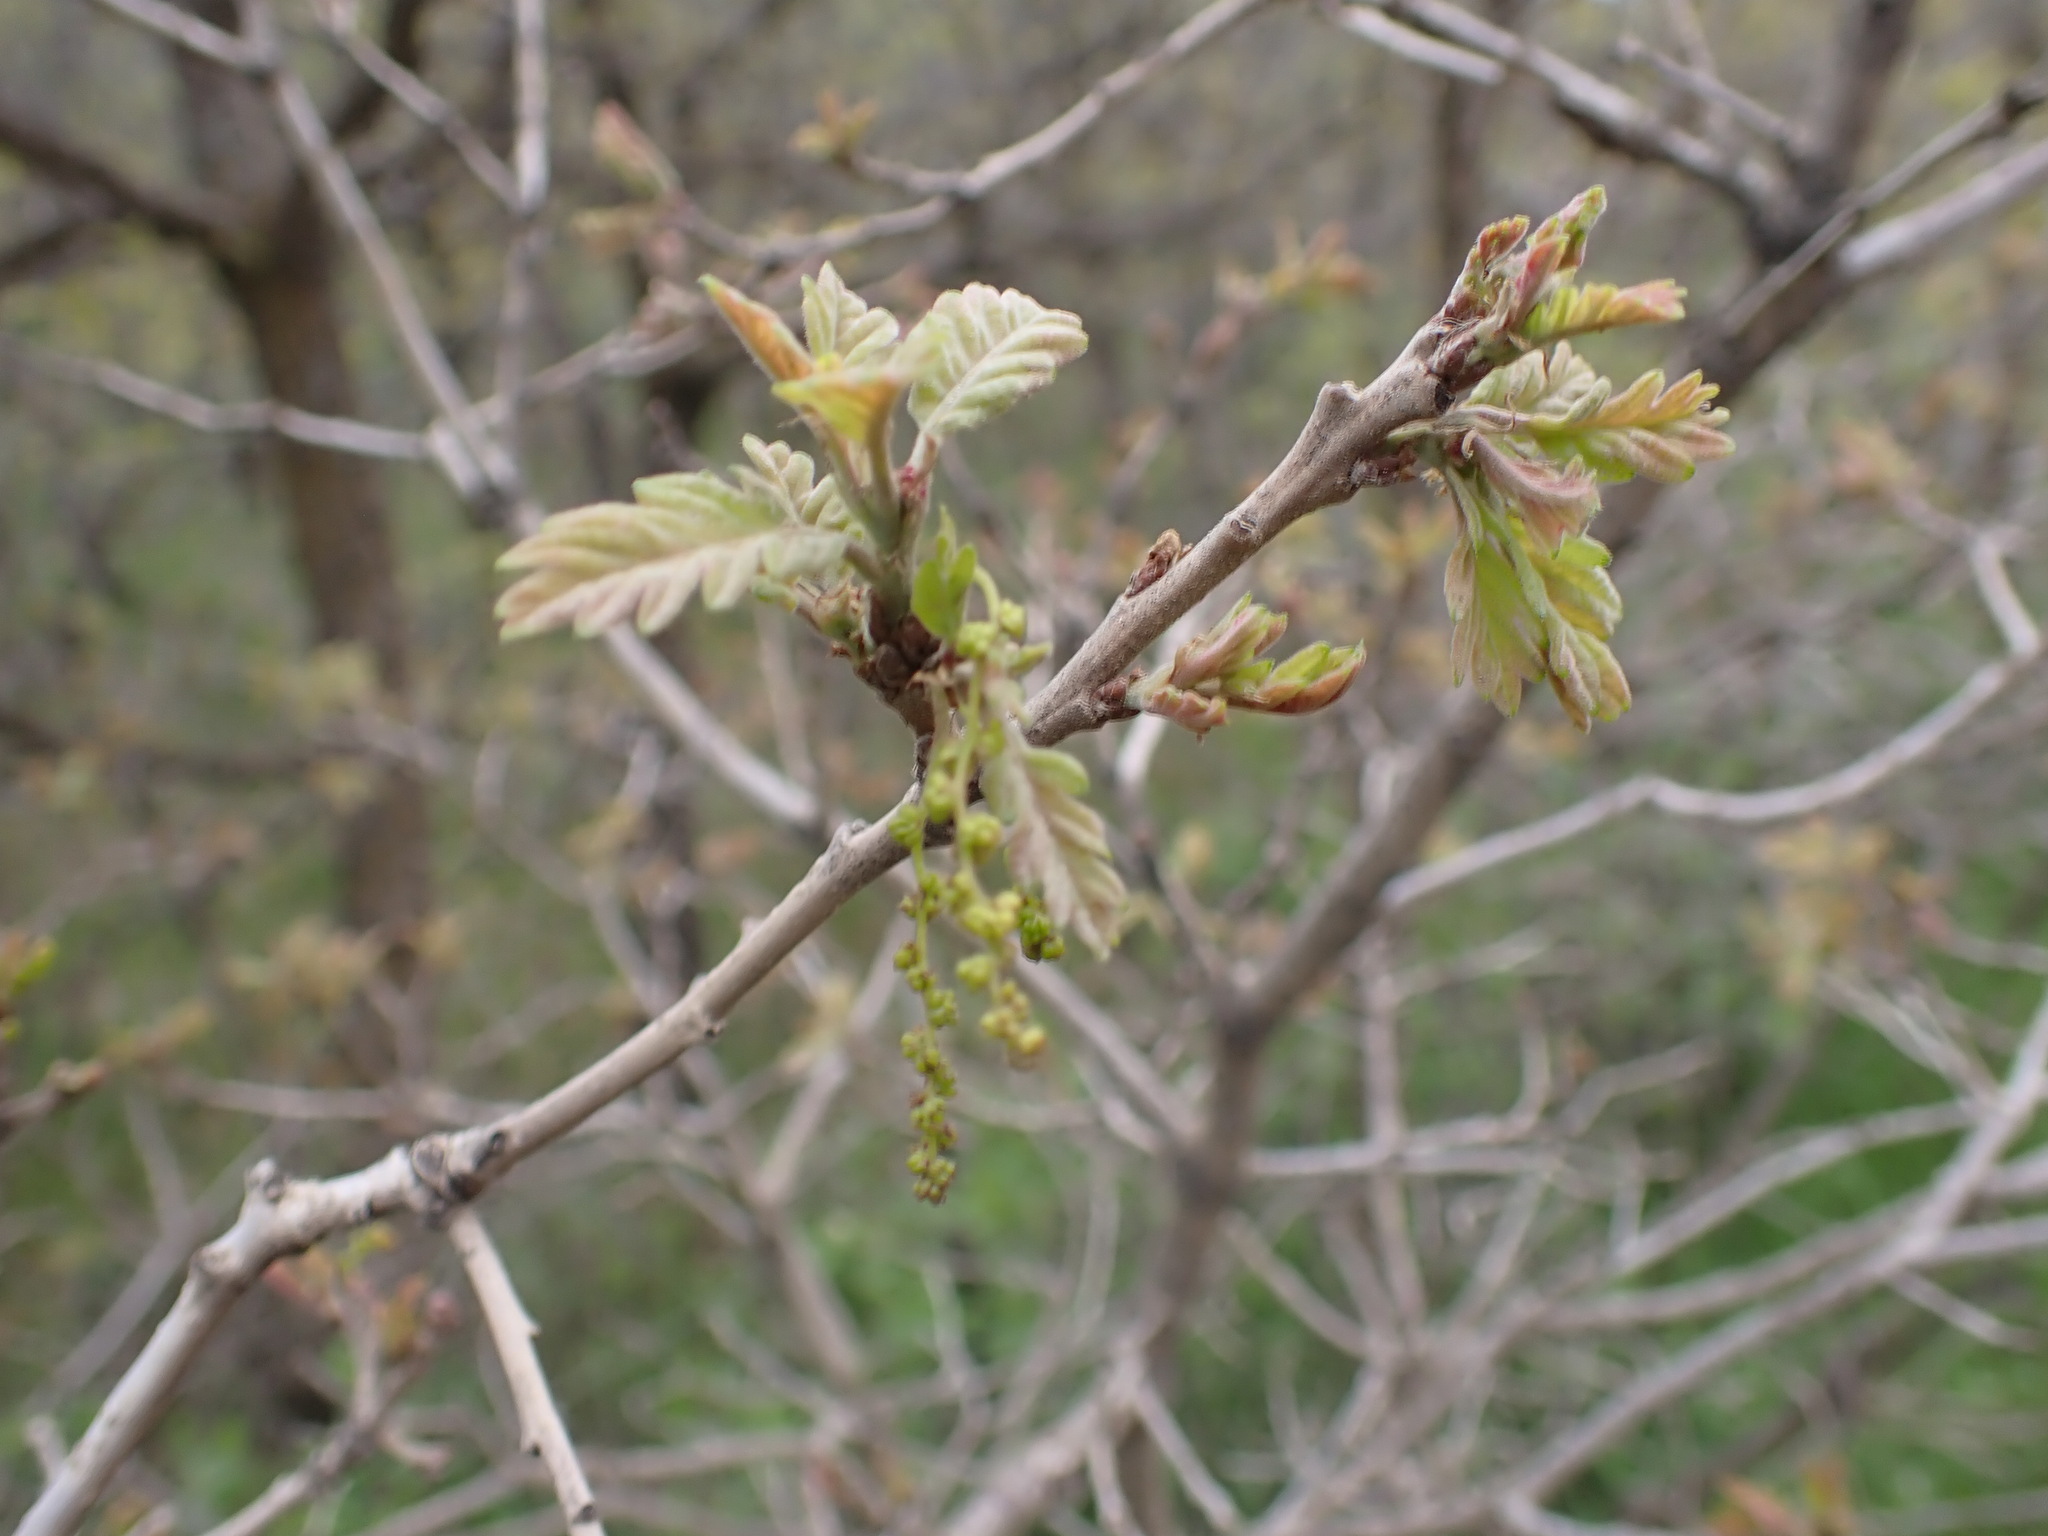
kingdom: Plantae
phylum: Tracheophyta
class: Magnoliopsida
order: Fagales
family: Fagaceae
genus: Quercus
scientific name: Quercus gambelii
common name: Gambel oak
